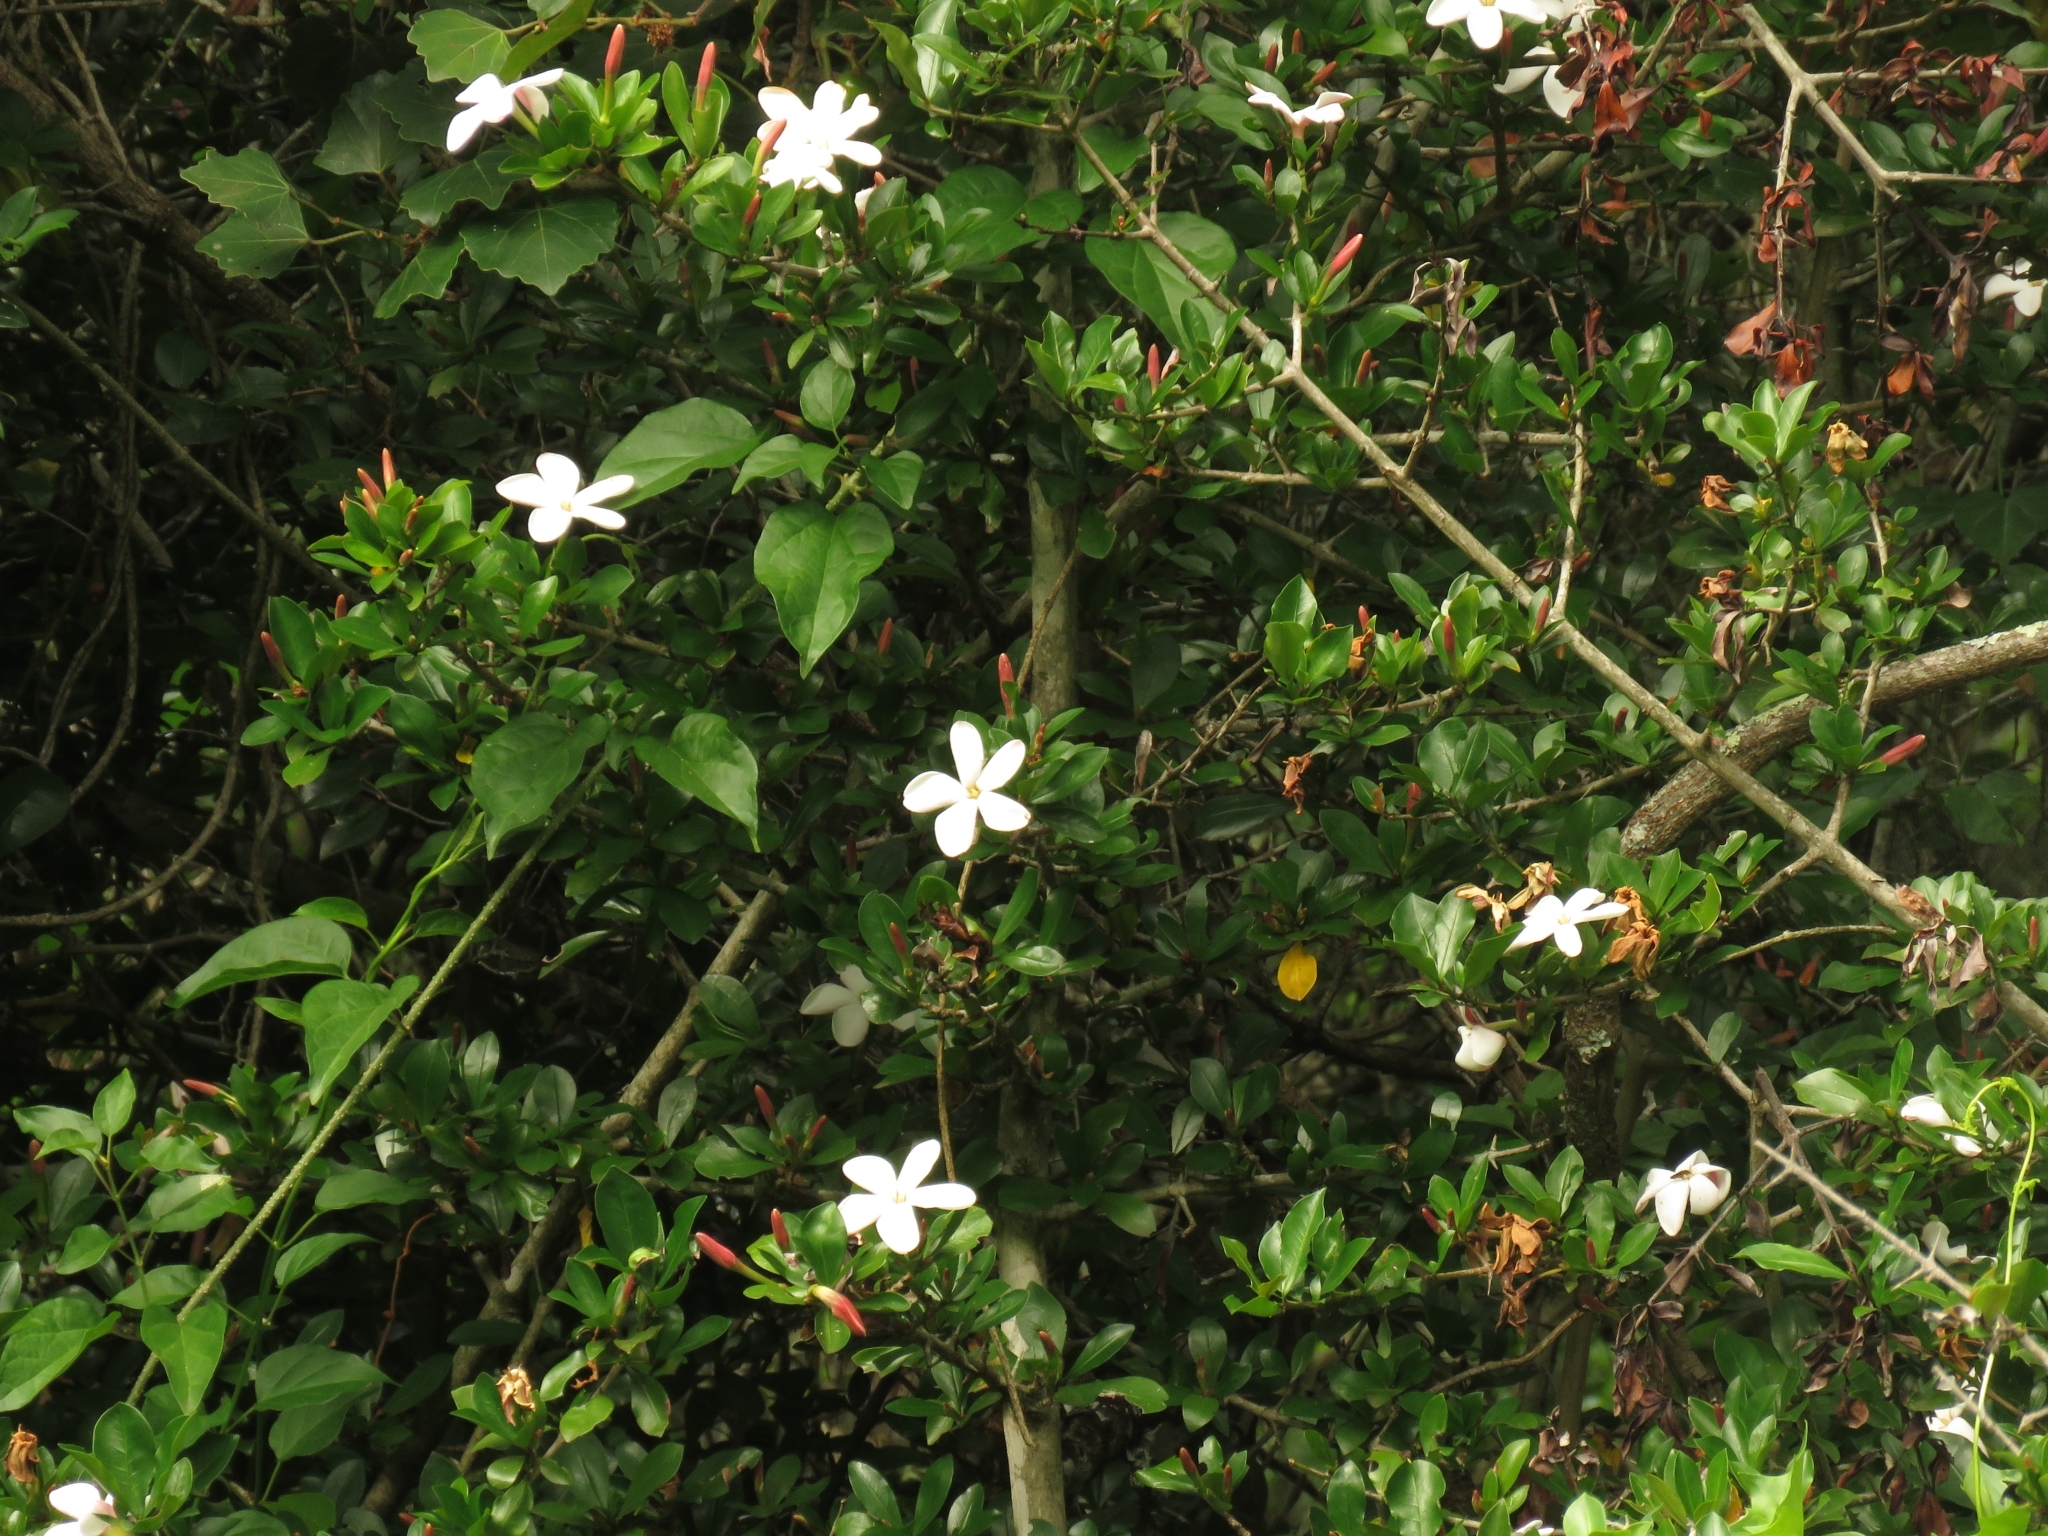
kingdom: Plantae
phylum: Tracheophyta
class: Magnoliopsida
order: Gentianales
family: Rubiaceae
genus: Hyperacanthus
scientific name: Hyperacanthus amoenus
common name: Spiny gardenia
